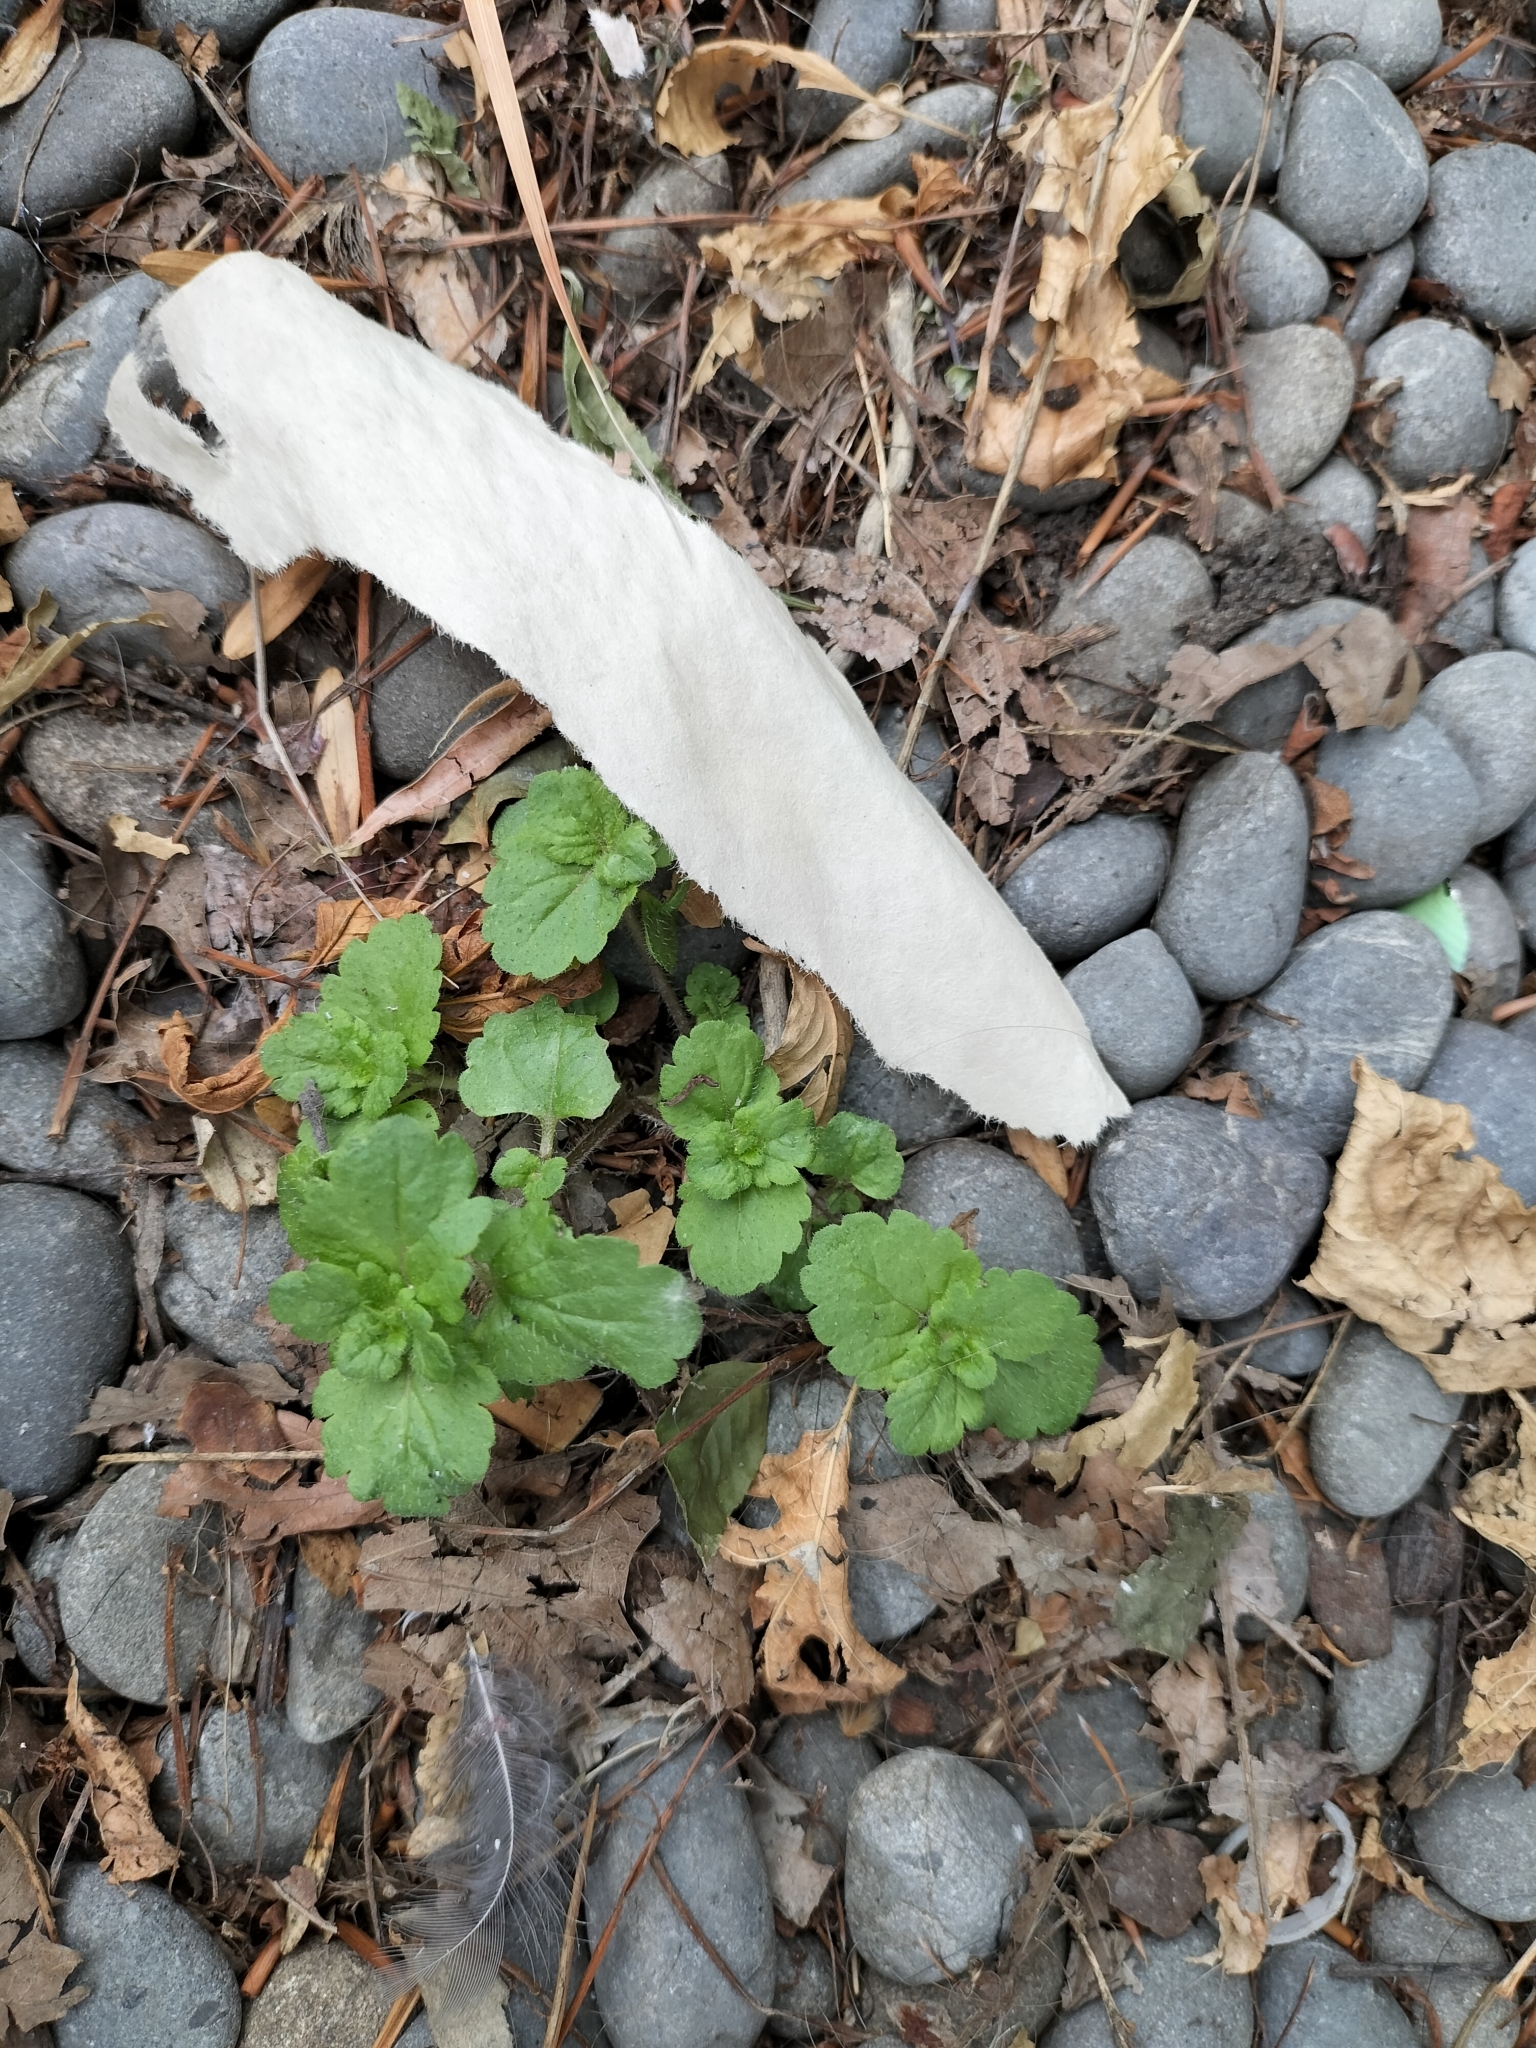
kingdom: Plantae
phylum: Tracheophyta
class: Magnoliopsida
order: Lamiales
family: Plantaginaceae
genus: Veronica
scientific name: Veronica persica
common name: Common field-speedwell
